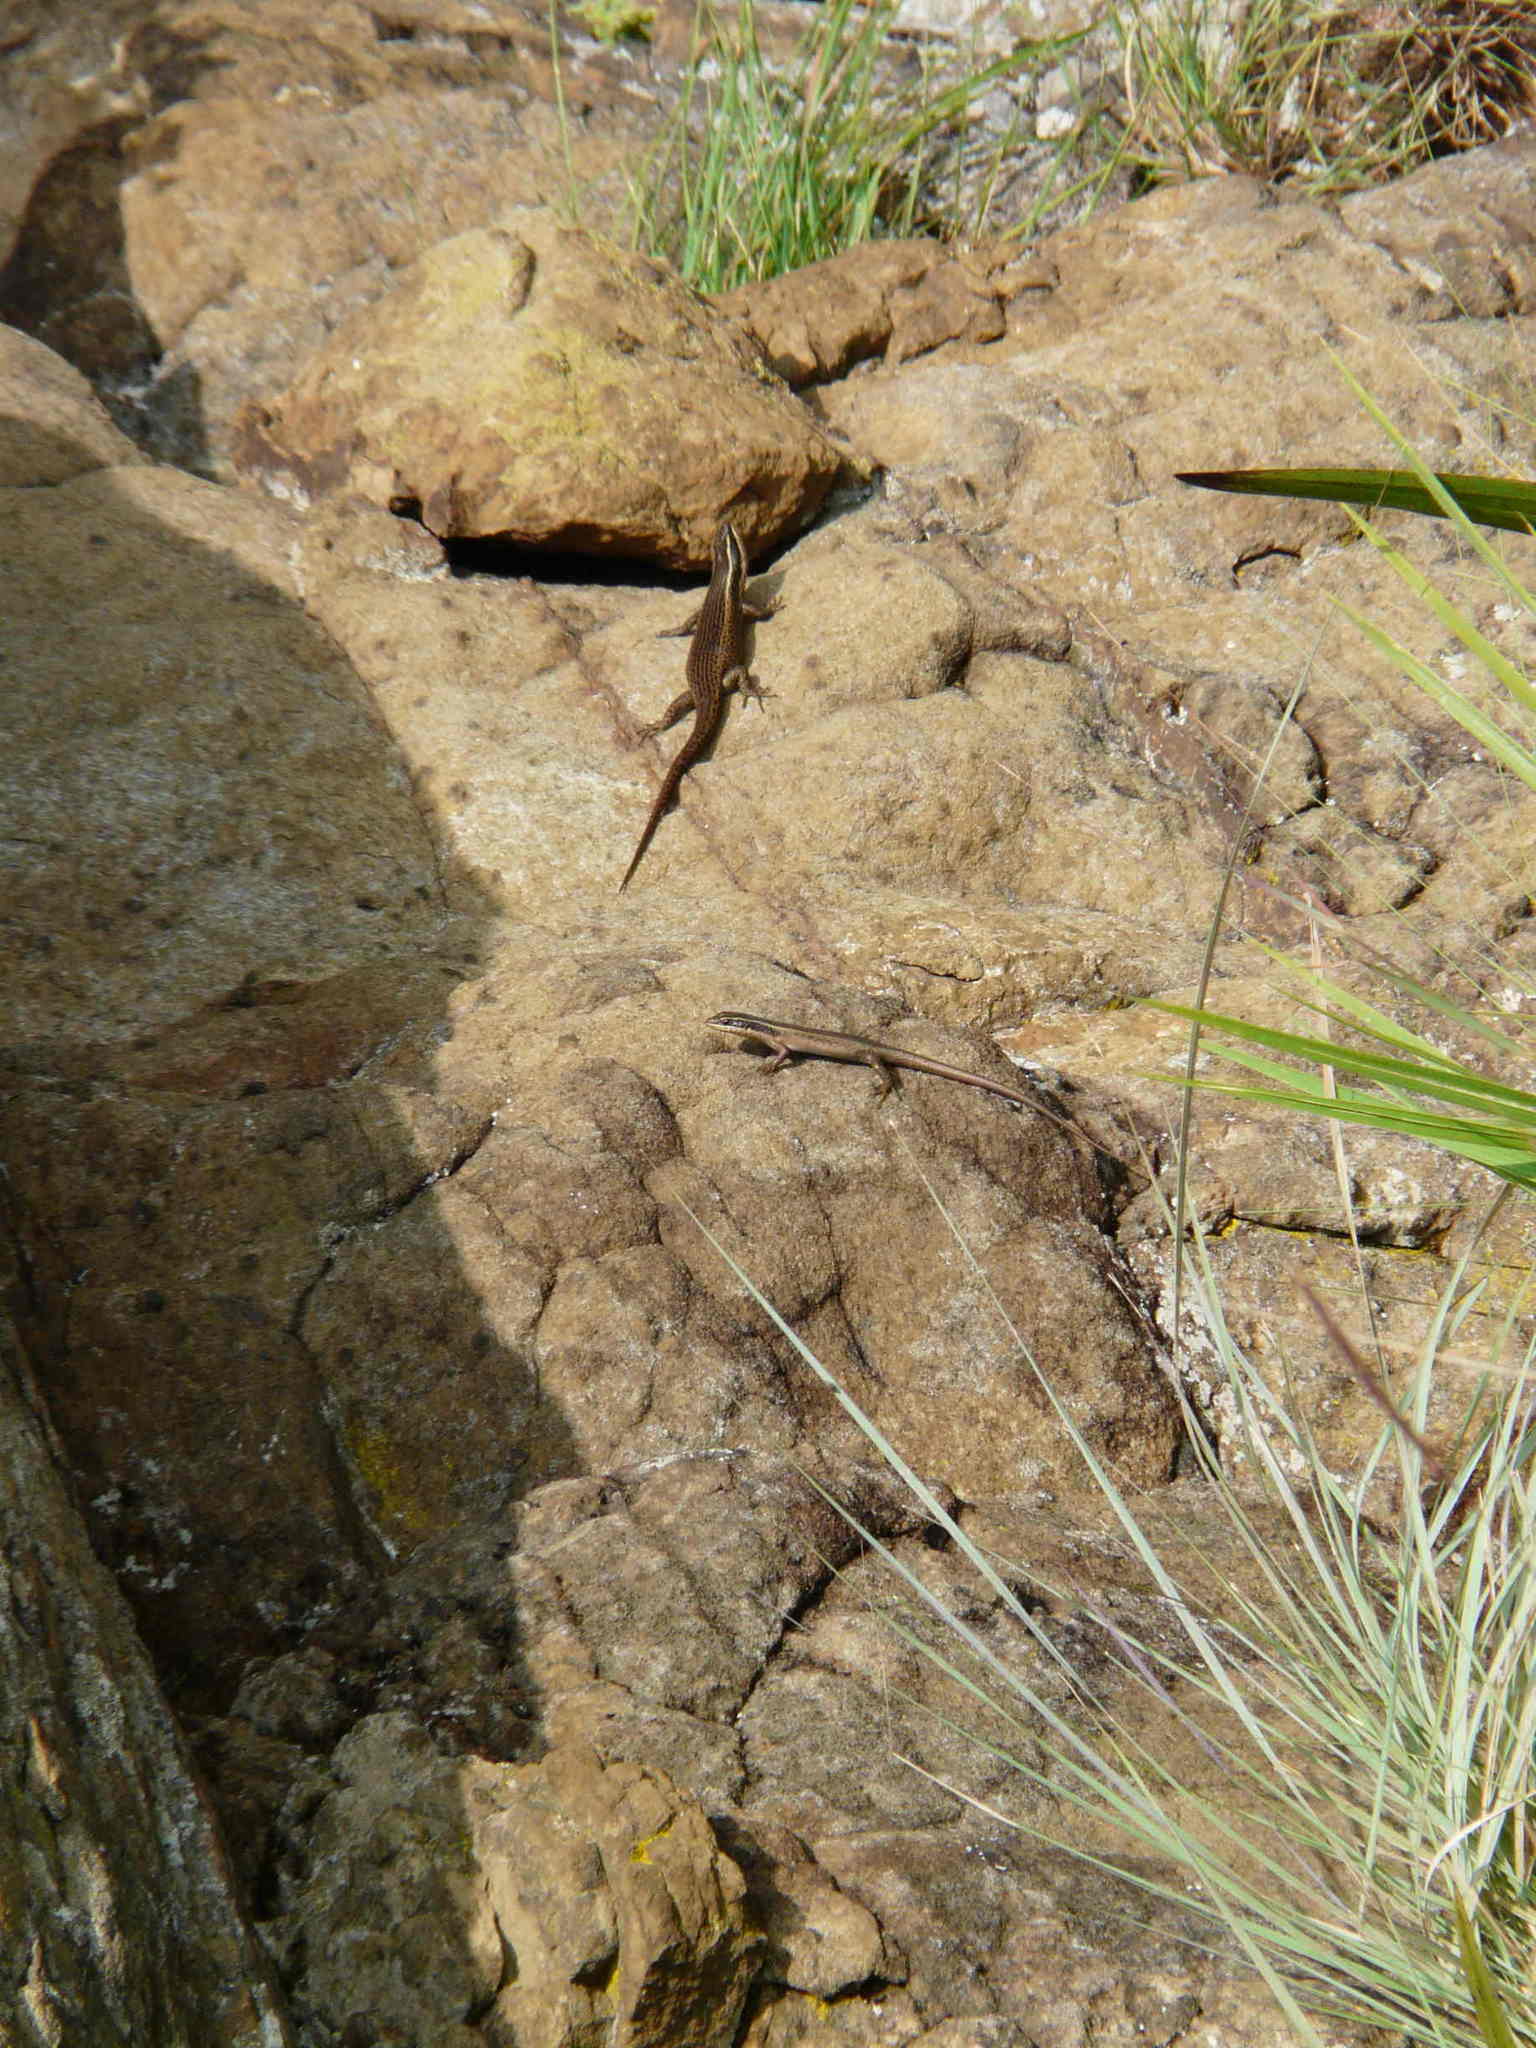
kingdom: Animalia
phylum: Chordata
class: Squamata
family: Scincidae
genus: Trachylepis
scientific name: Trachylepis punctatissima
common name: Montane speckled skink
